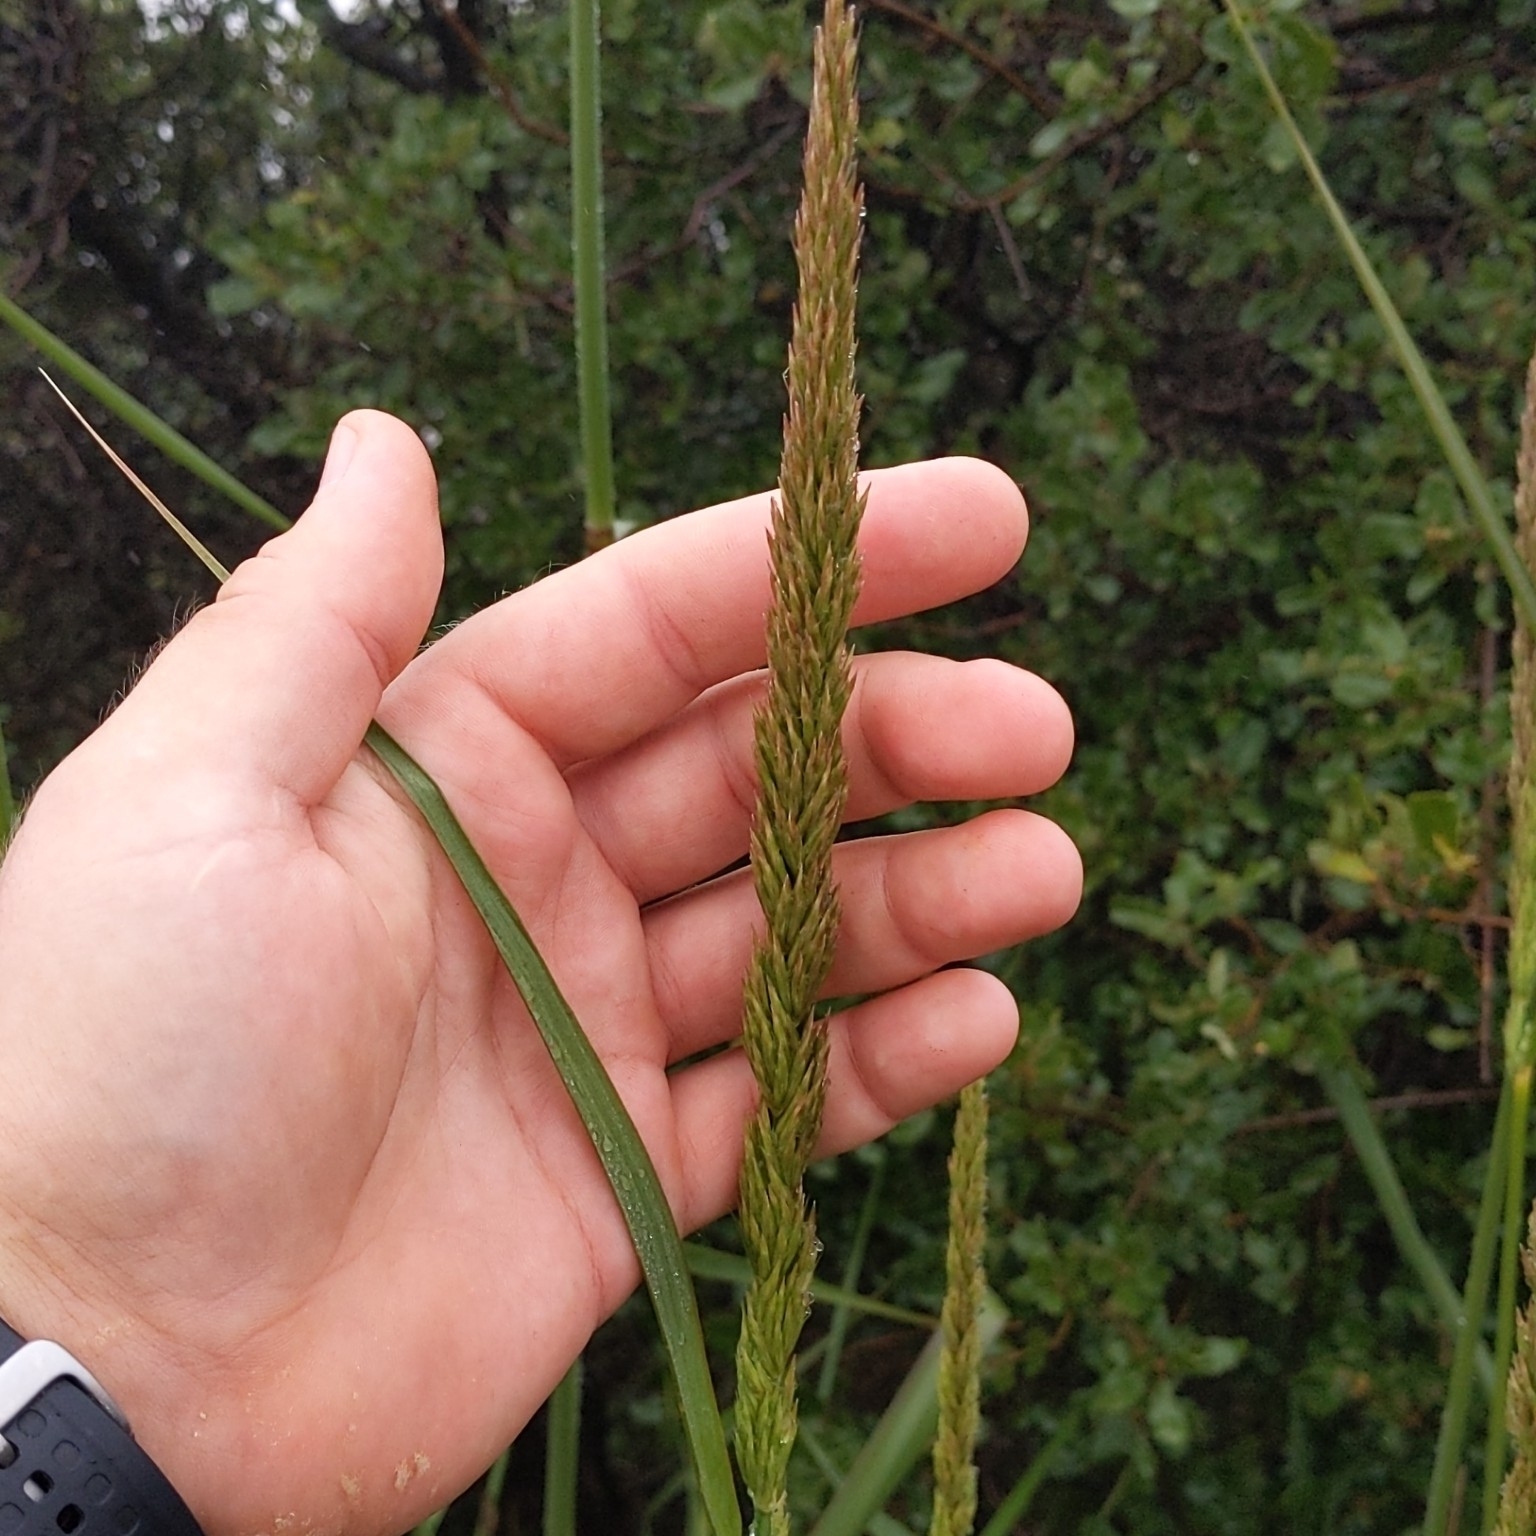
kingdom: Plantae
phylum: Tracheophyta
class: Liliopsida
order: Poales
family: Poaceae
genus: Leymus
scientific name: Leymus condensatus
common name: Giant wild rye
